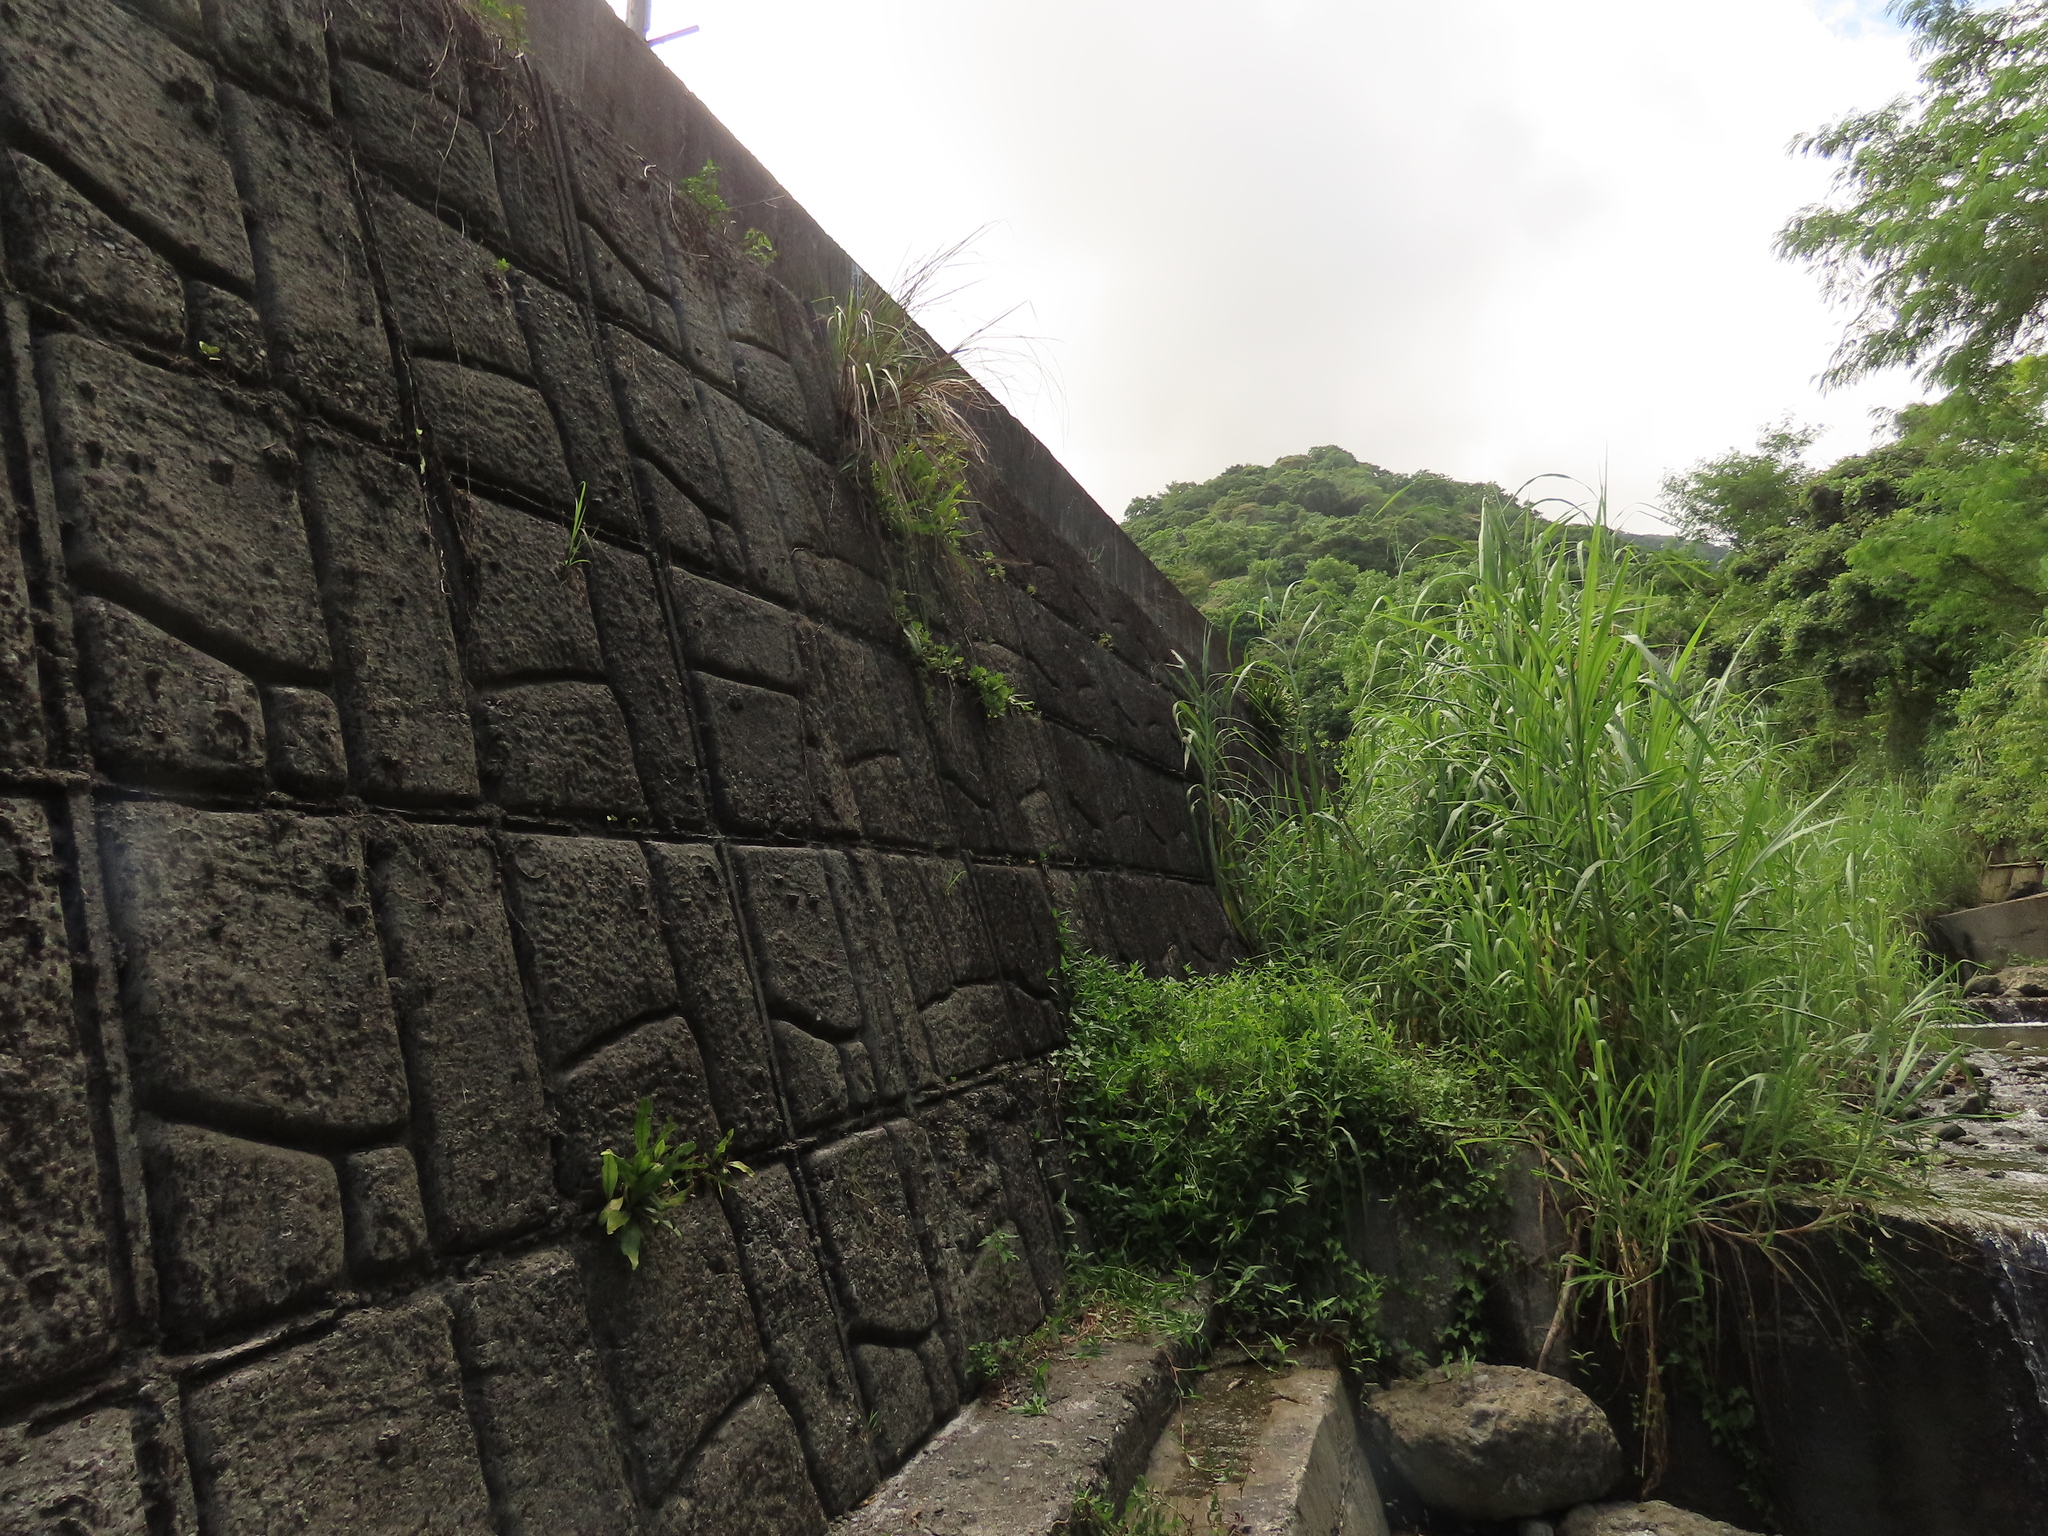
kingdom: Plantae
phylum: Tracheophyta
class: Magnoliopsida
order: Saxifragales
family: Crassulaceae
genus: Kalanchoe
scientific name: Kalanchoe tashiroi
